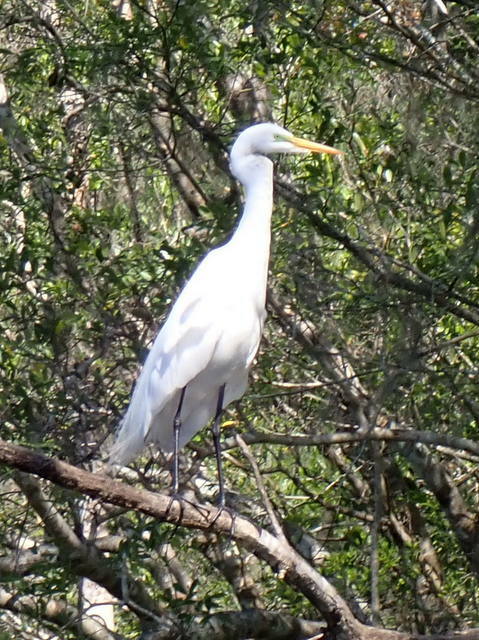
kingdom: Animalia
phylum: Chordata
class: Aves
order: Pelecaniformes
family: Ardeidae
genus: Ardea
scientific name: Ardea alba
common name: Great egret
